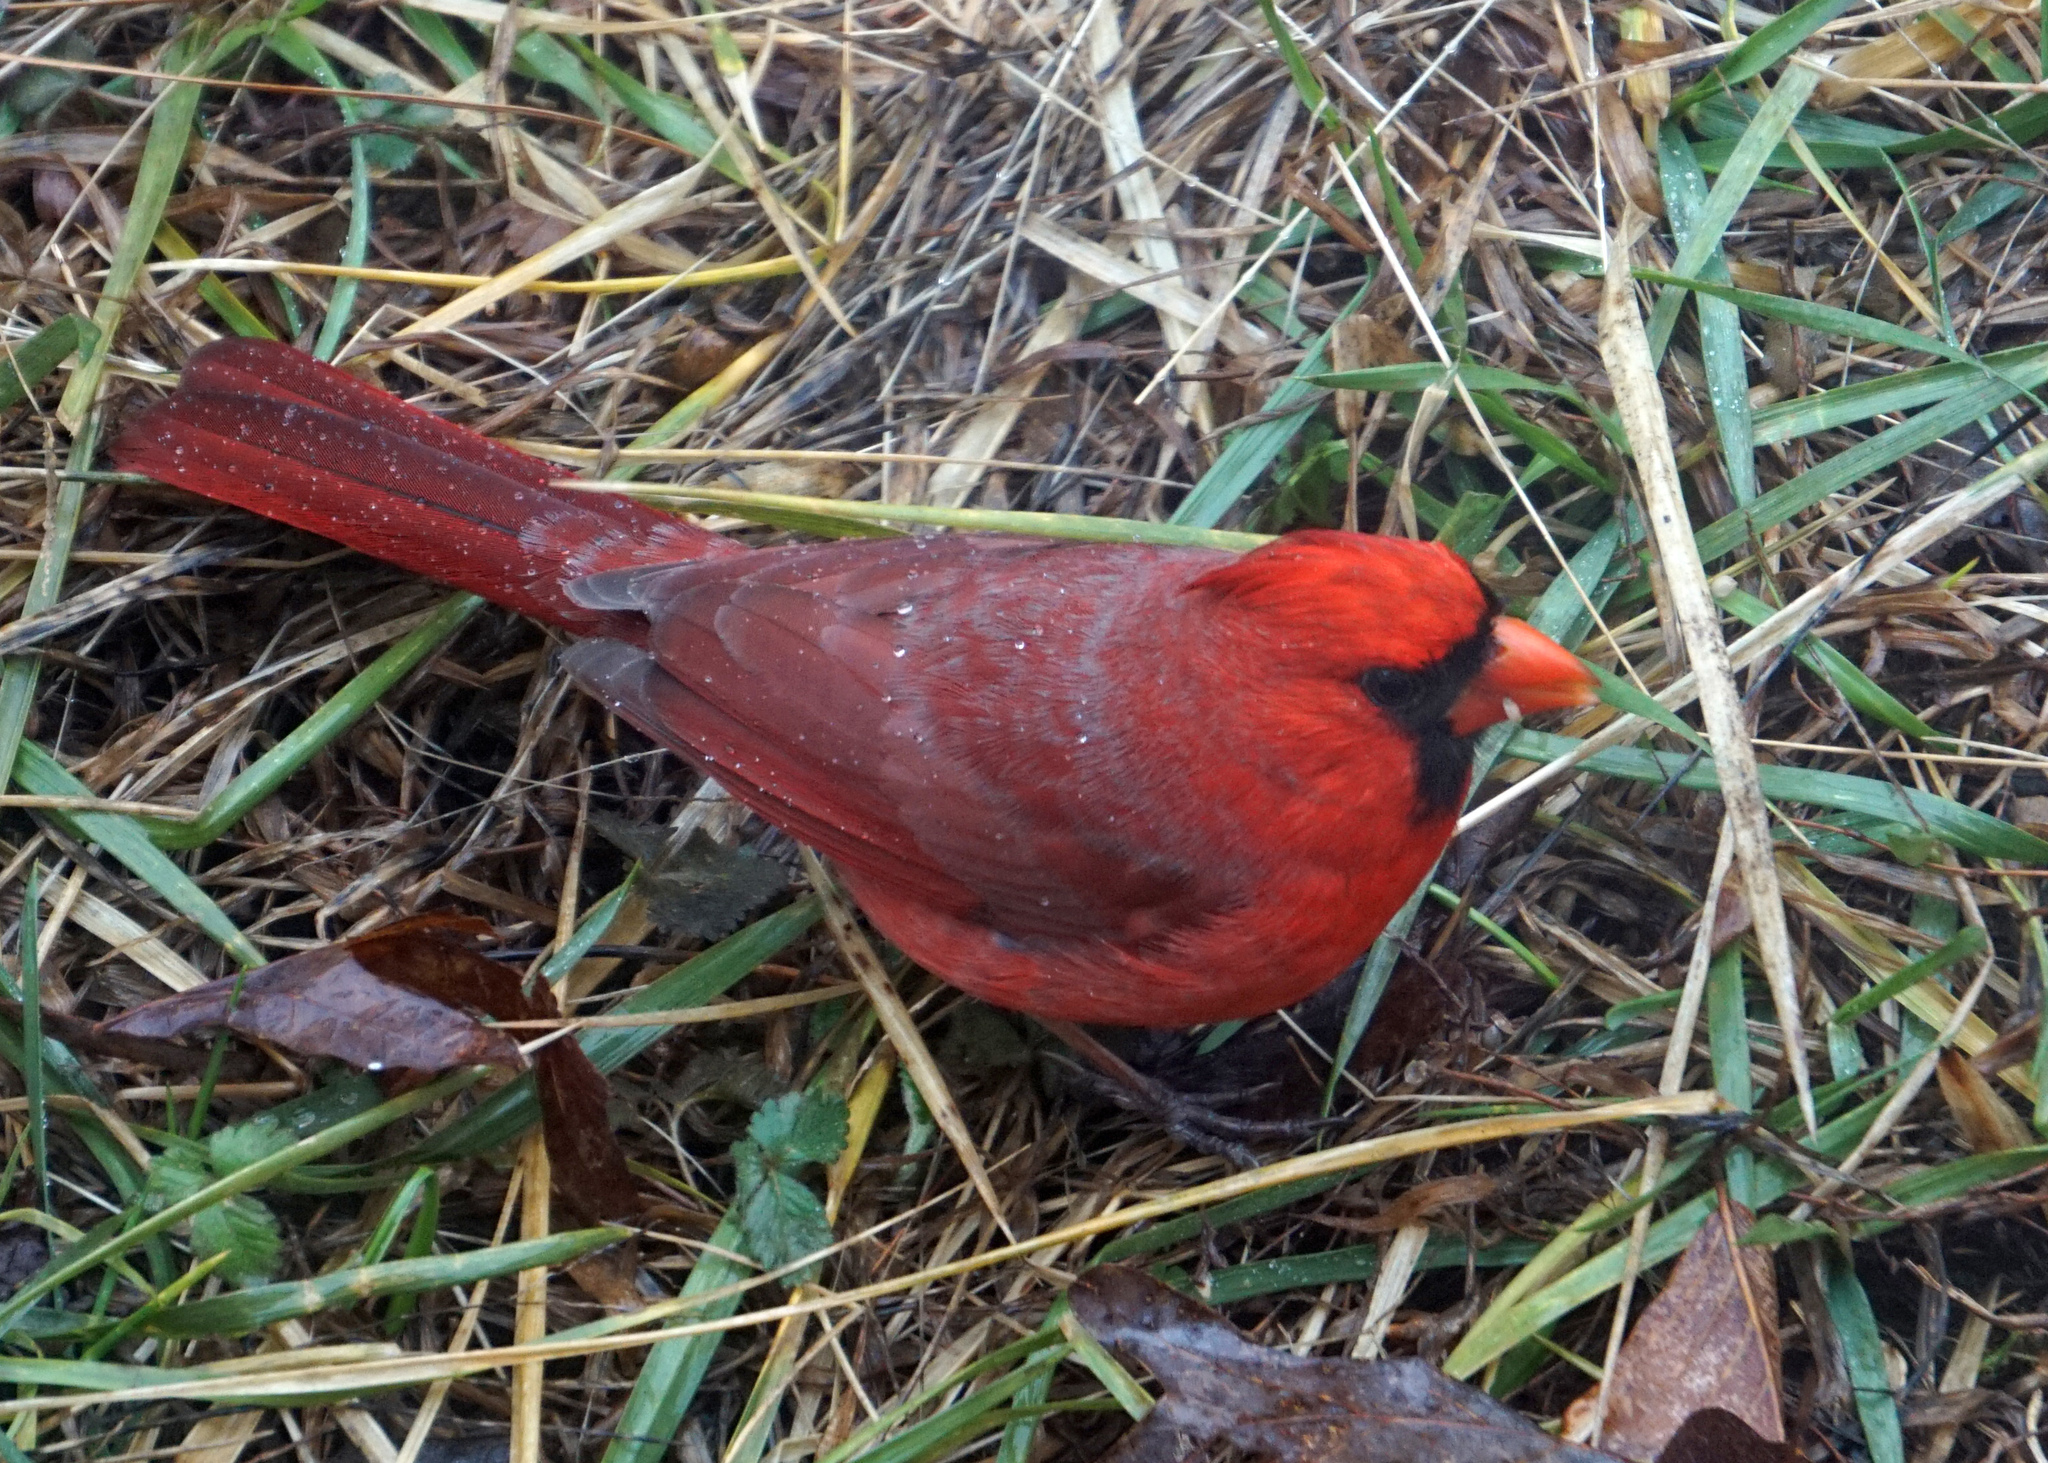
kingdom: Animalia
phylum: Chordata
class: Aves
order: Passeriformes
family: Cardinalidae
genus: Cardinalis
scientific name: Cardinalis cardinalis
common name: Northern cardinal
